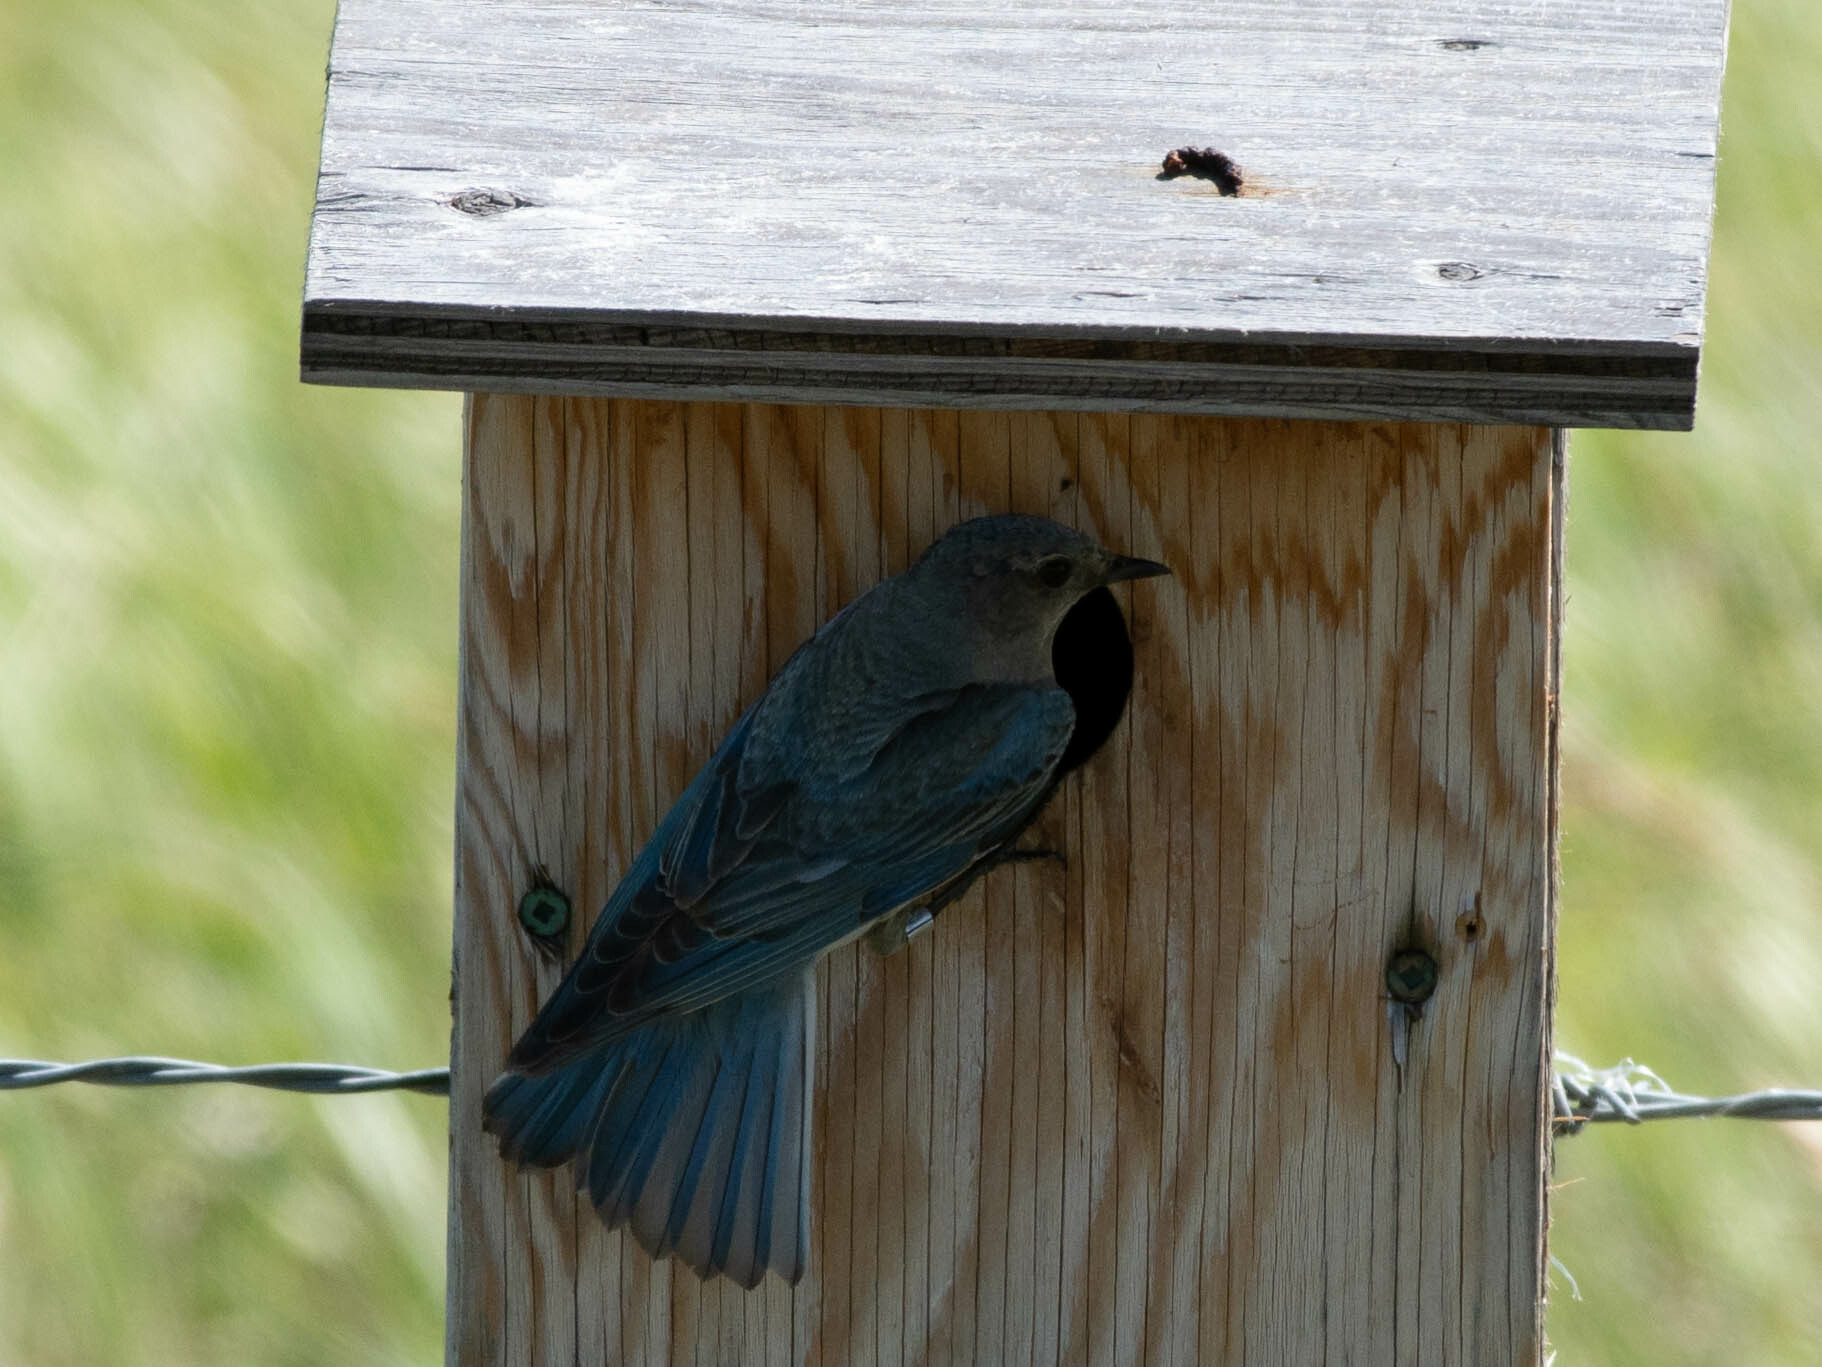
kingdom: Animalia
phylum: Chordata
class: Aves
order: Passeriformes
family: Turdidae
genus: Sialia
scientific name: Sialia currucoides
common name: Mountain bluebird
